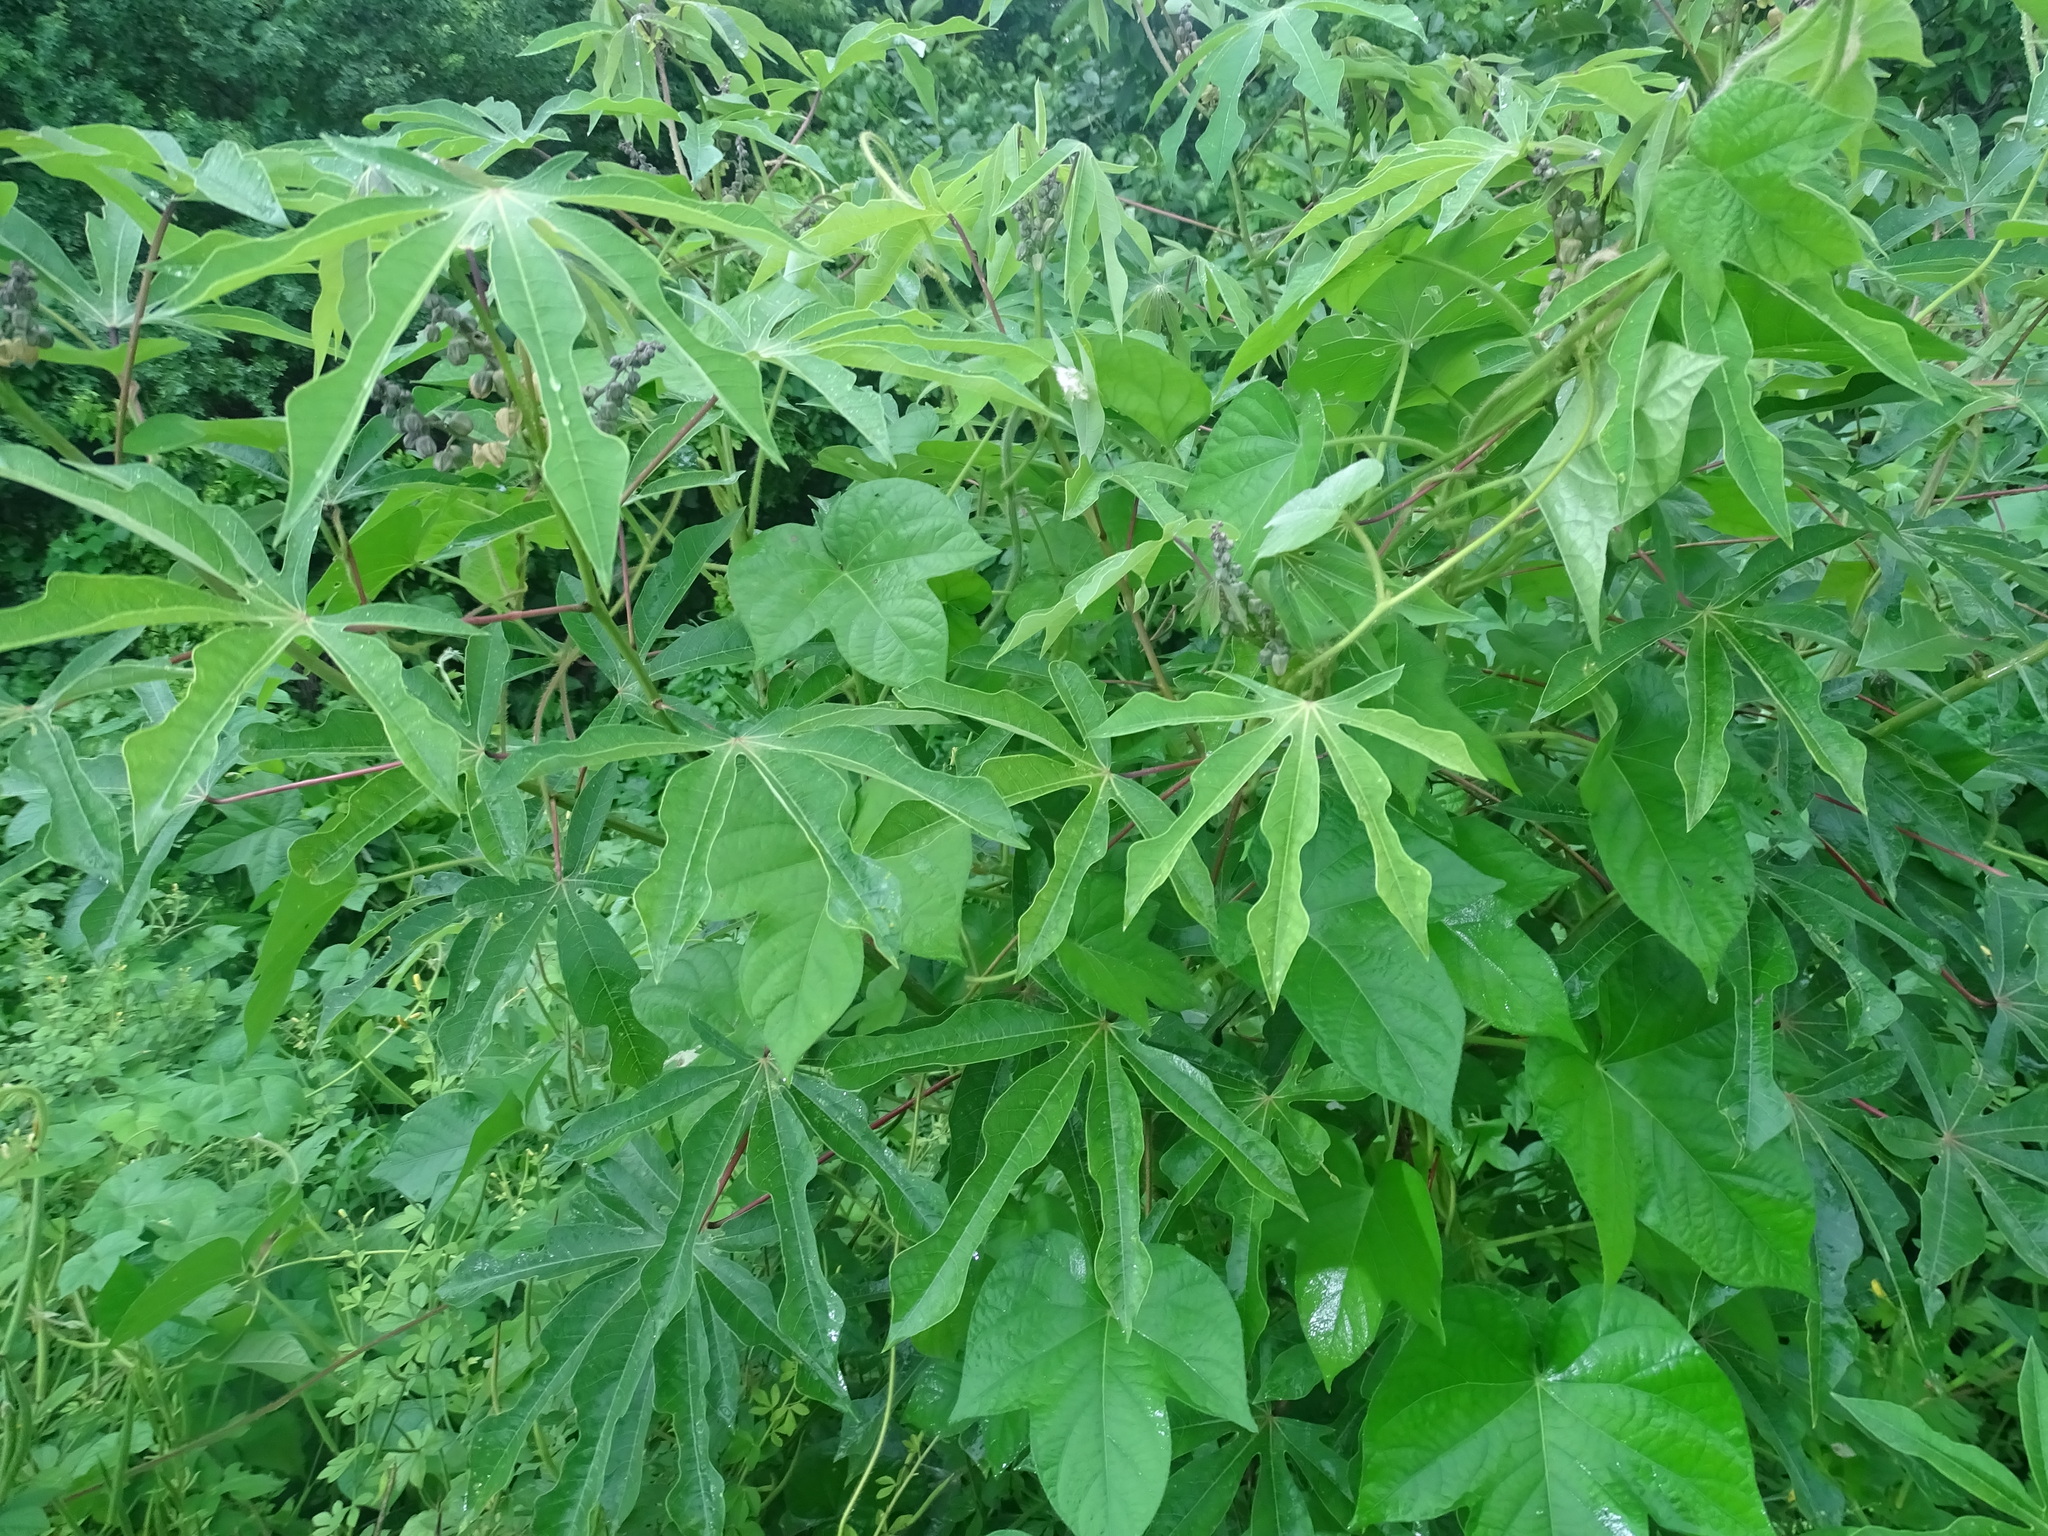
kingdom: Plantae
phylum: Tracheophyta
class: Magnoliopsida
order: Malpighiales
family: Euphorbiaceae
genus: Manihot
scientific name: Manihot esculenta
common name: Cassava
